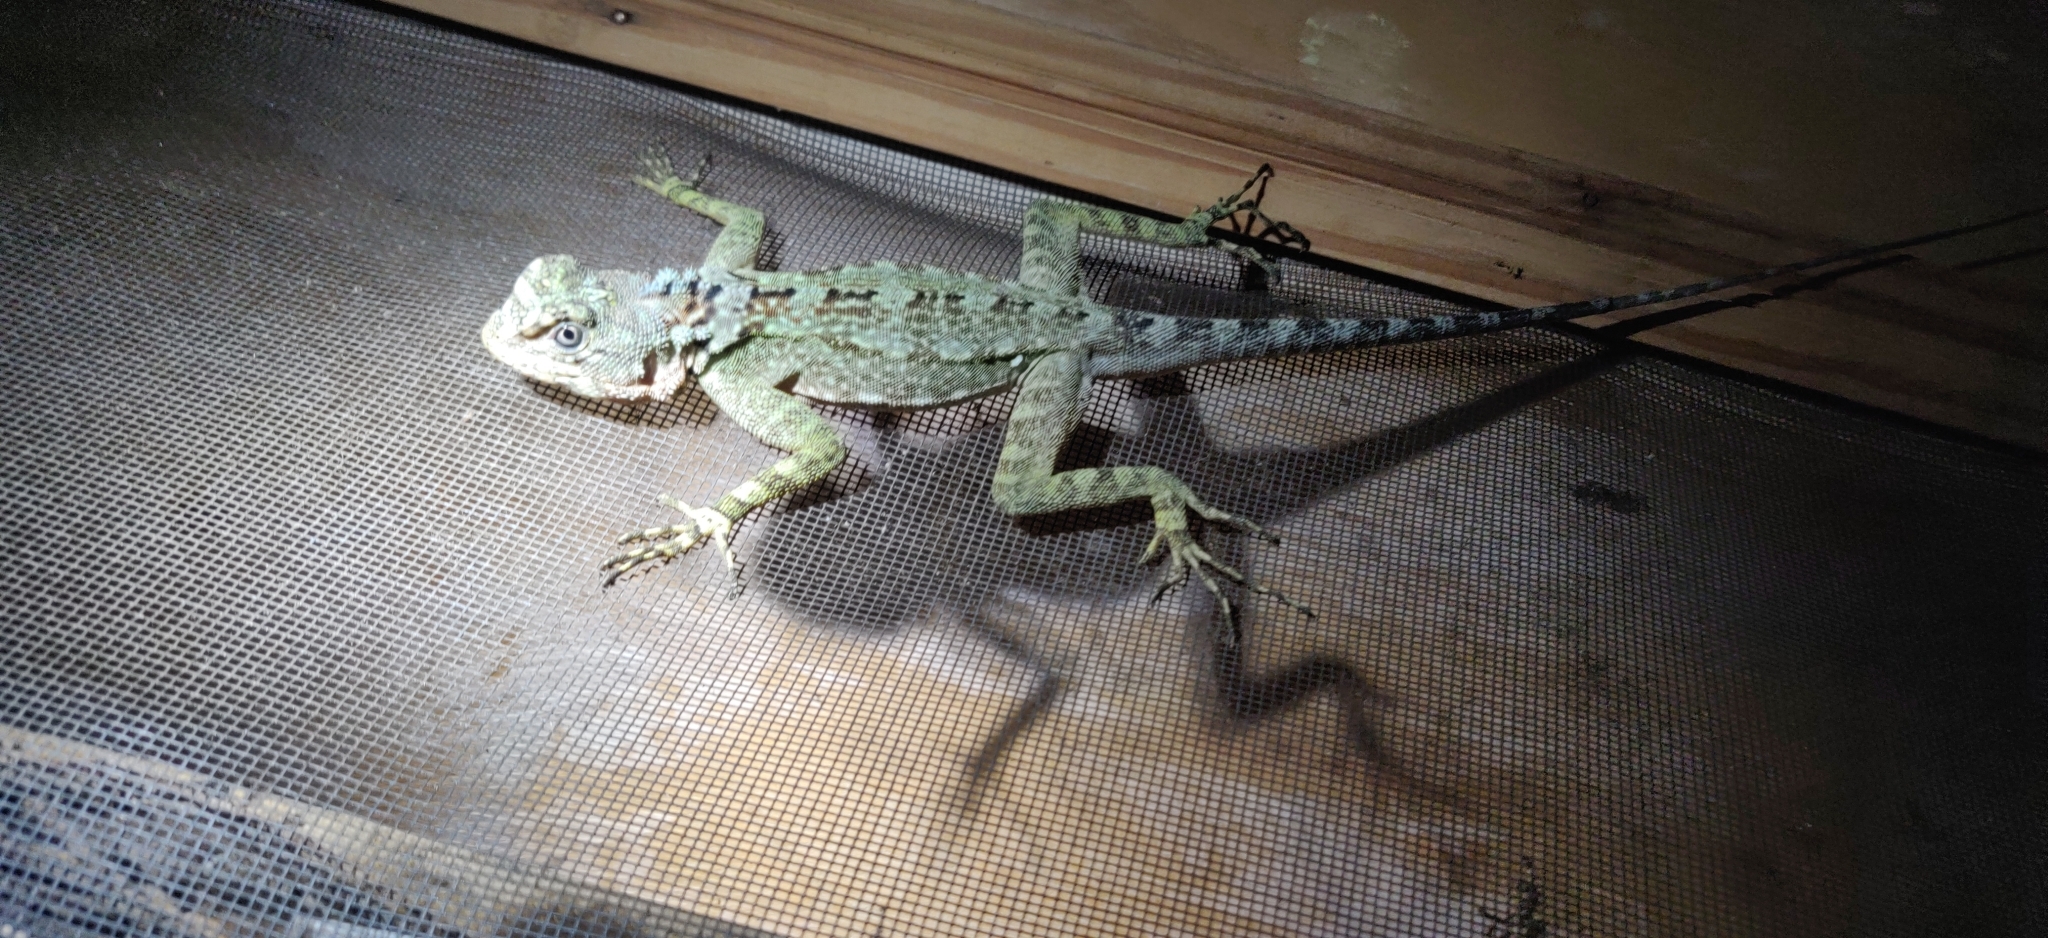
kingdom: Animalia
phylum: Chordata
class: Squamata
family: Tropiduridae
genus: Plica
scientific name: Plica caribeana
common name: Caribbean treerunner
